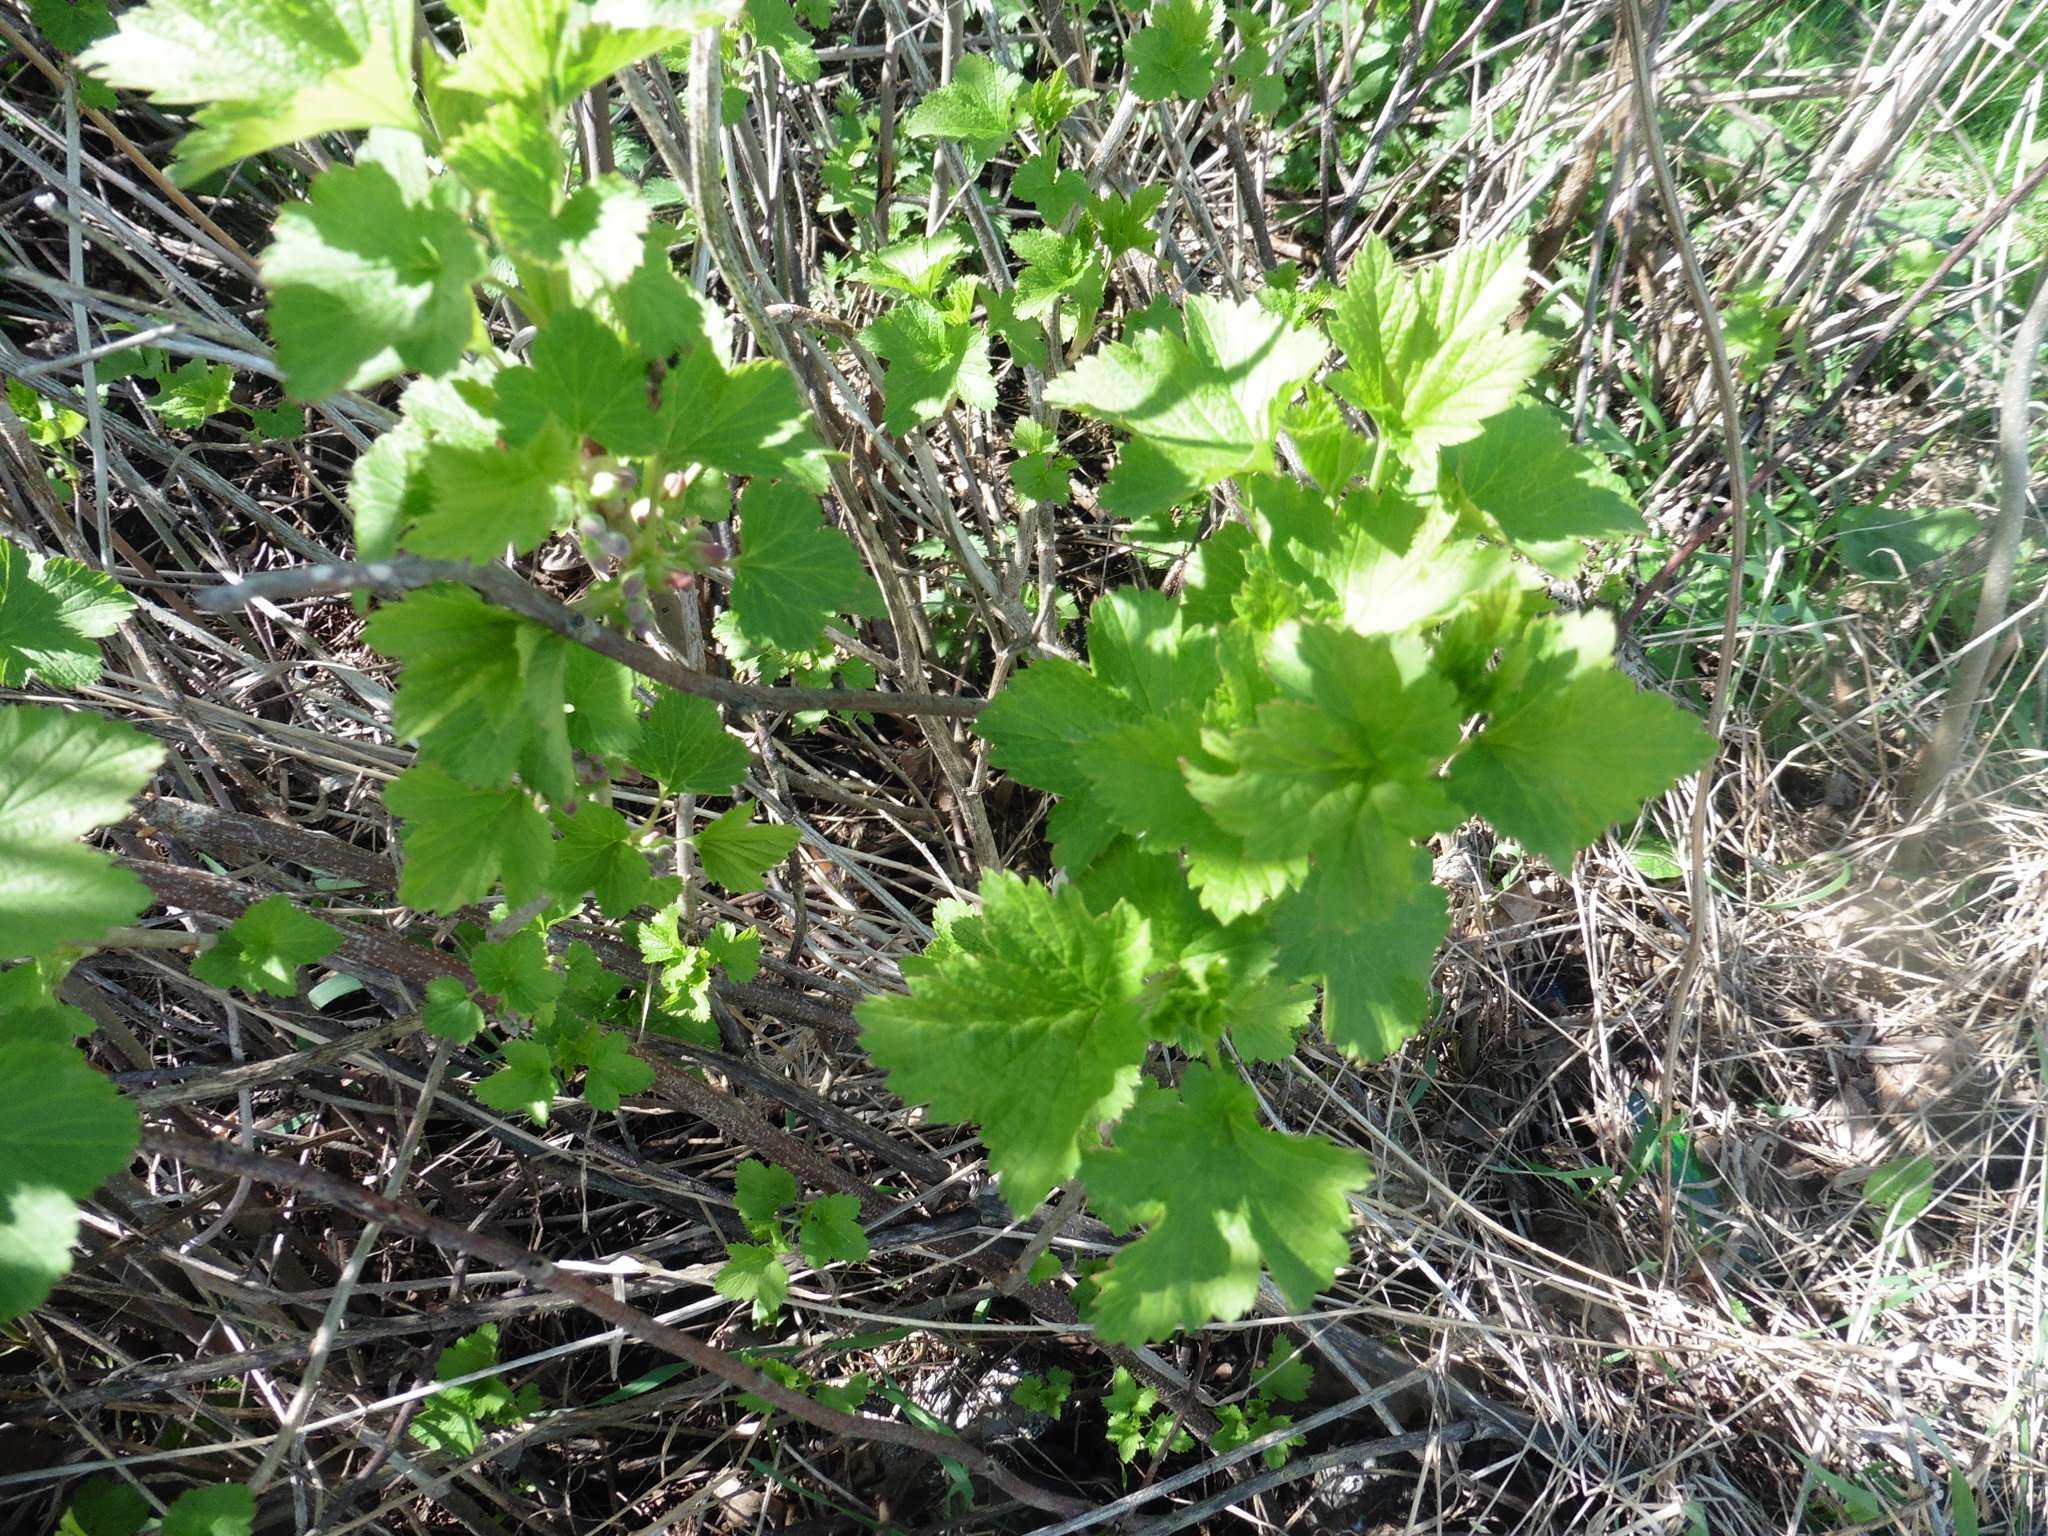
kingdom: Plantae
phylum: Tracheophyta
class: Magnoliopsida
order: Saxifragales
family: Grossulariaceae
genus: Ribes
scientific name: Ribes nigrum
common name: Black currant
